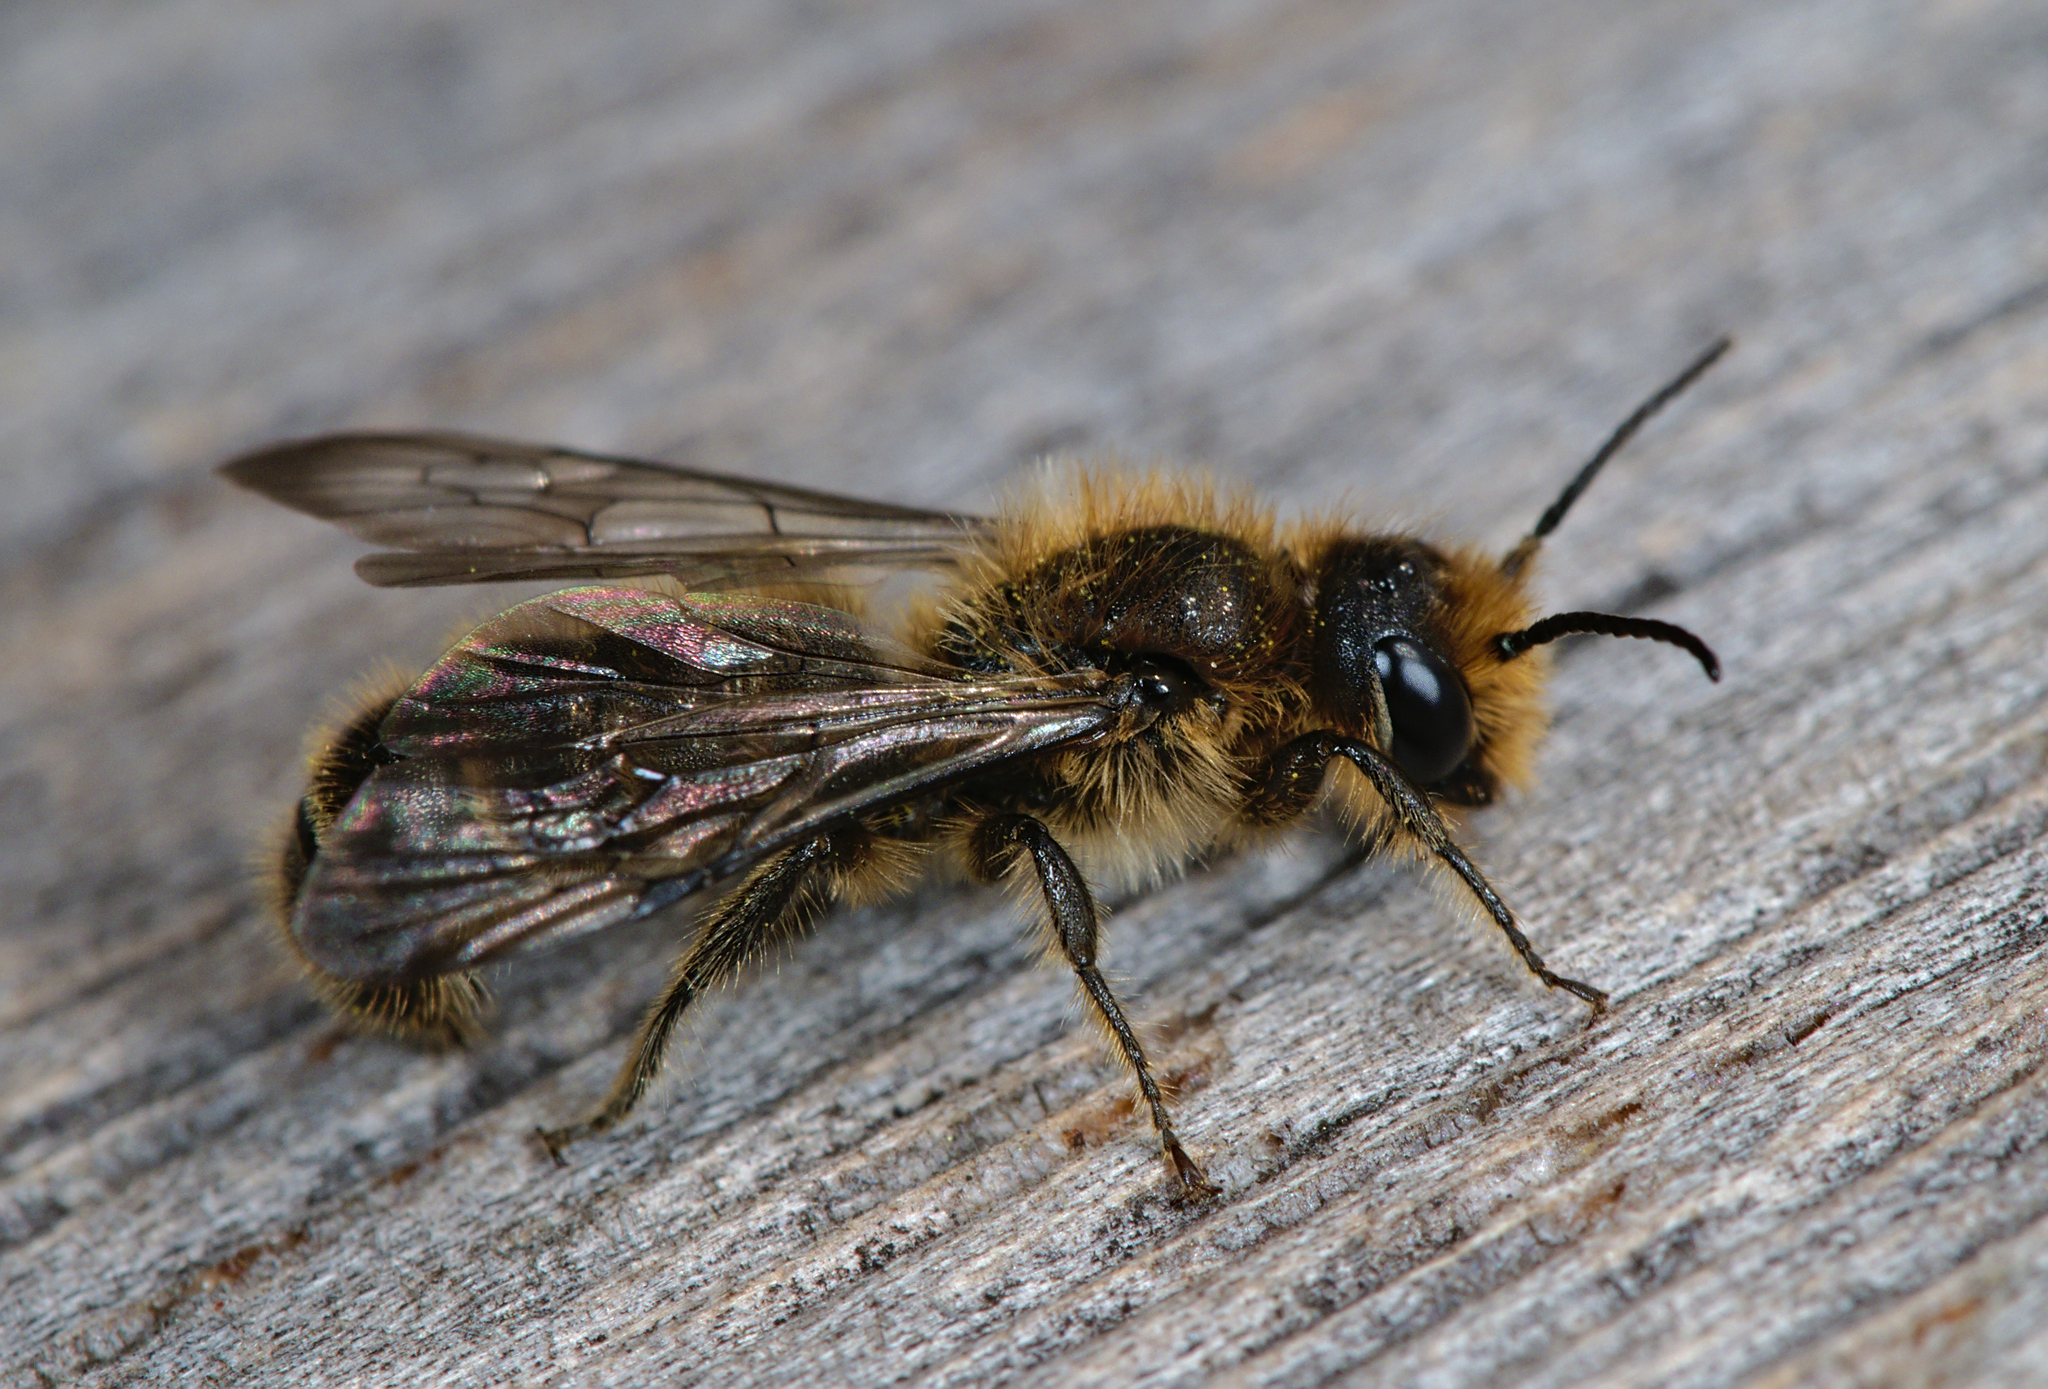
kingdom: Animalia
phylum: Arthropoda
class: Insecta
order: Hymenoptera
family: Megachilidae
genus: Chelostoma
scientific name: Chelostoma florisomne
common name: Sleepy carpenter bee
